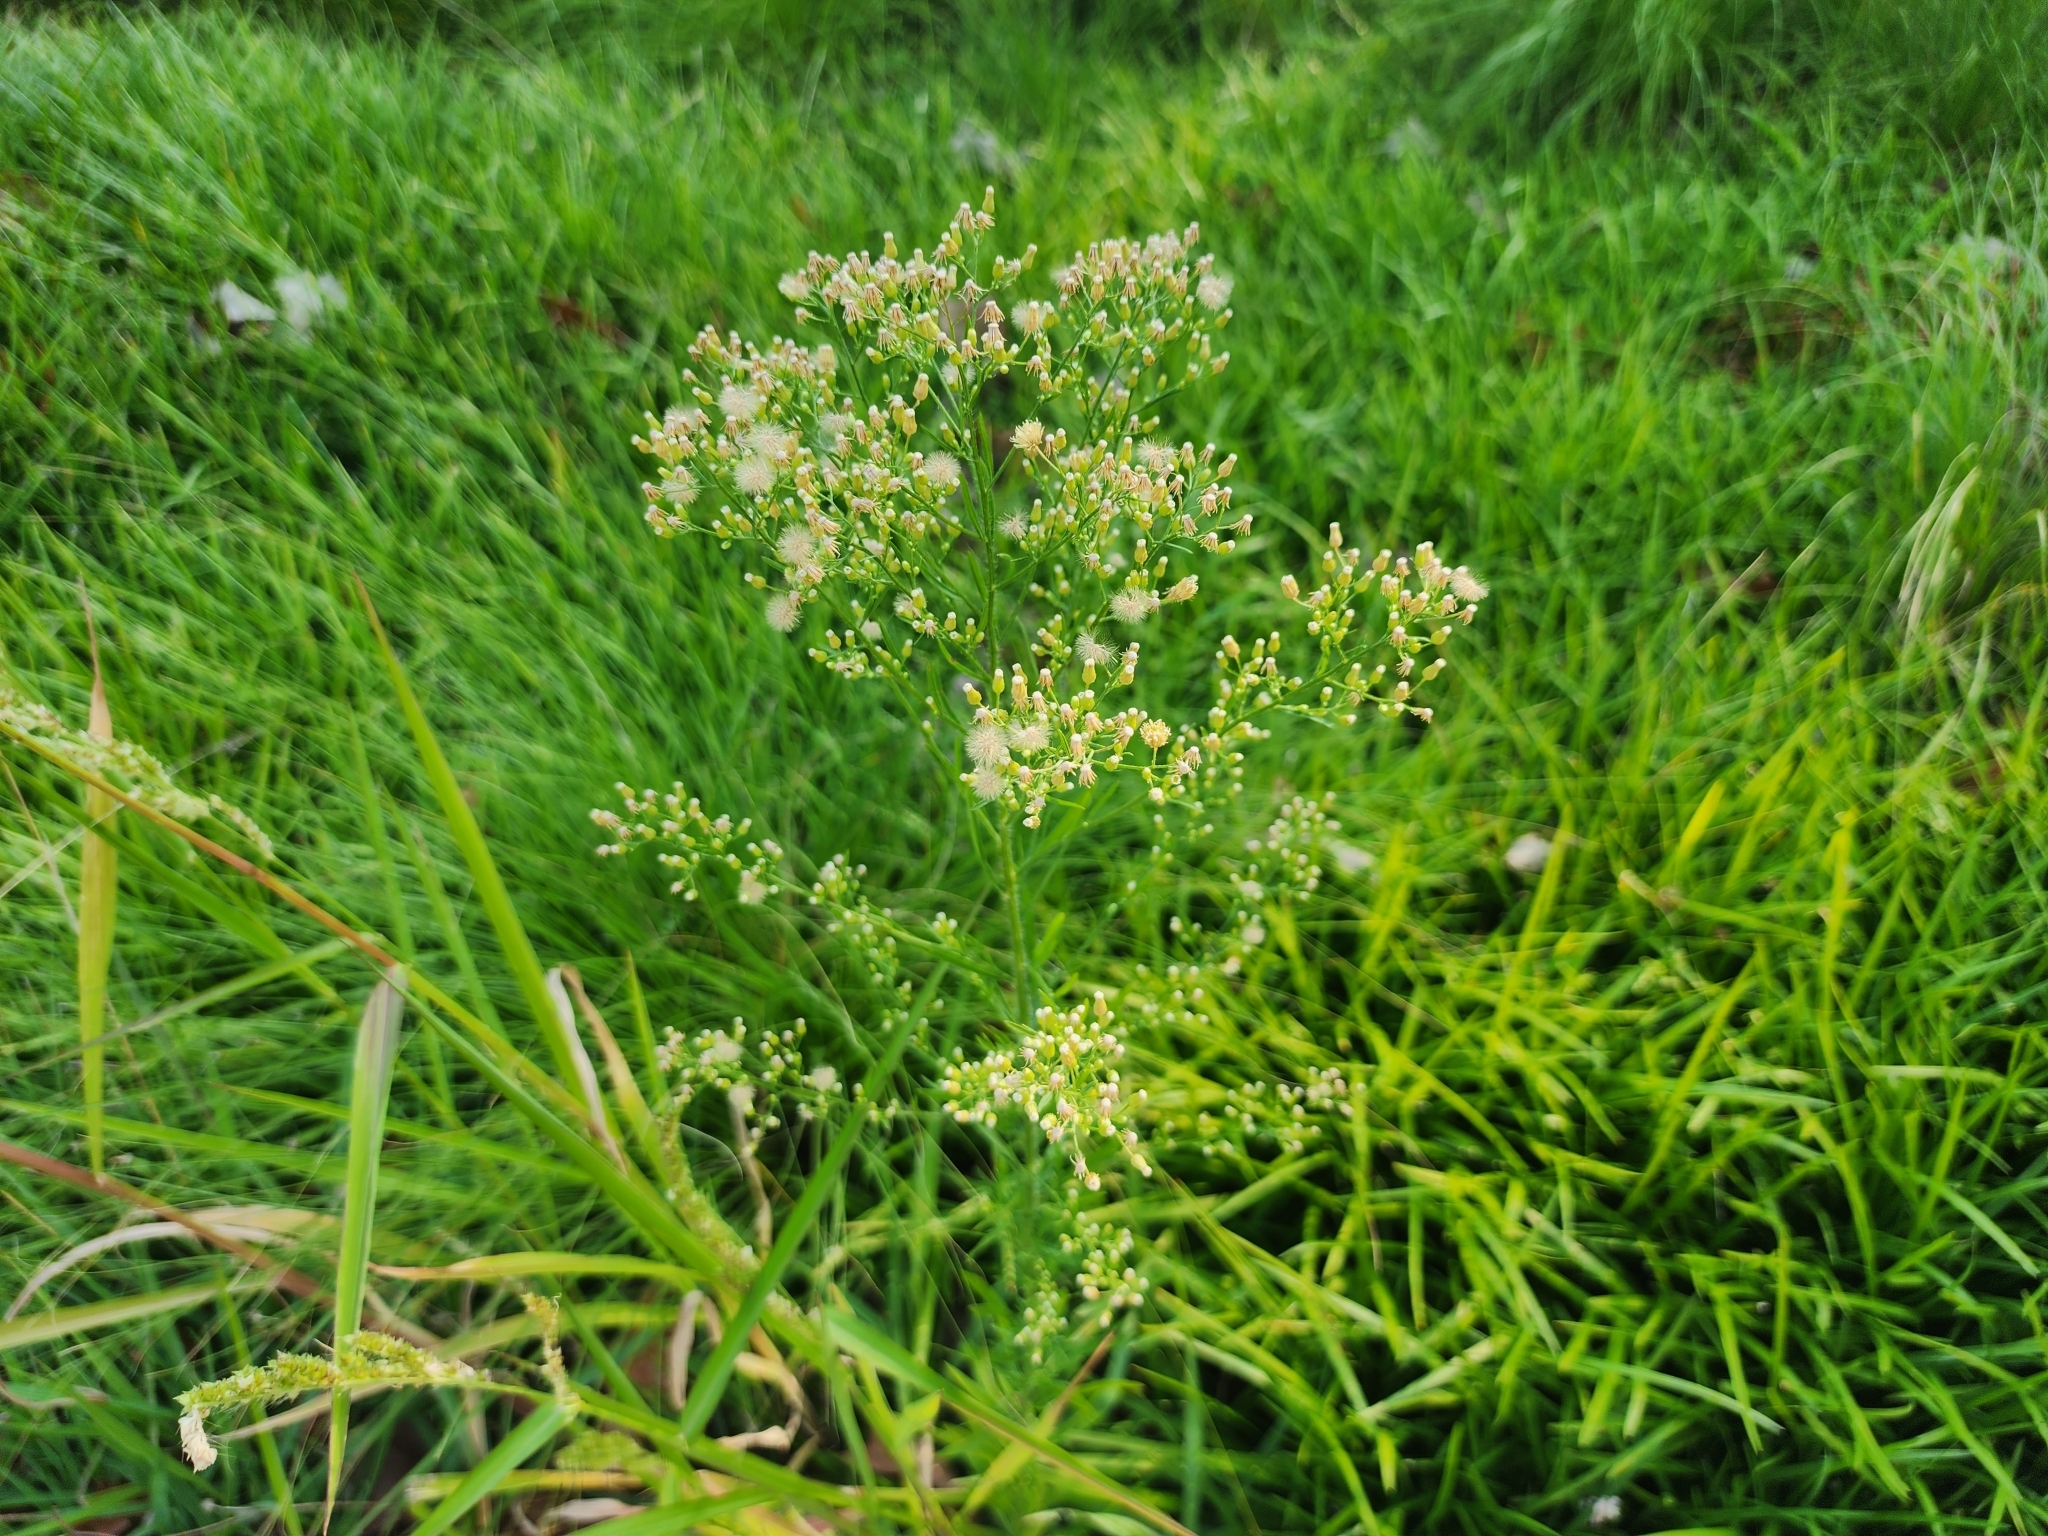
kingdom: Plantae
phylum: Tracheophyta
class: Magnoliopsida
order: Asterales
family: Asteraceae
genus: Erigeron
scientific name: Erigeron canadensis
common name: Canadian fleabane
